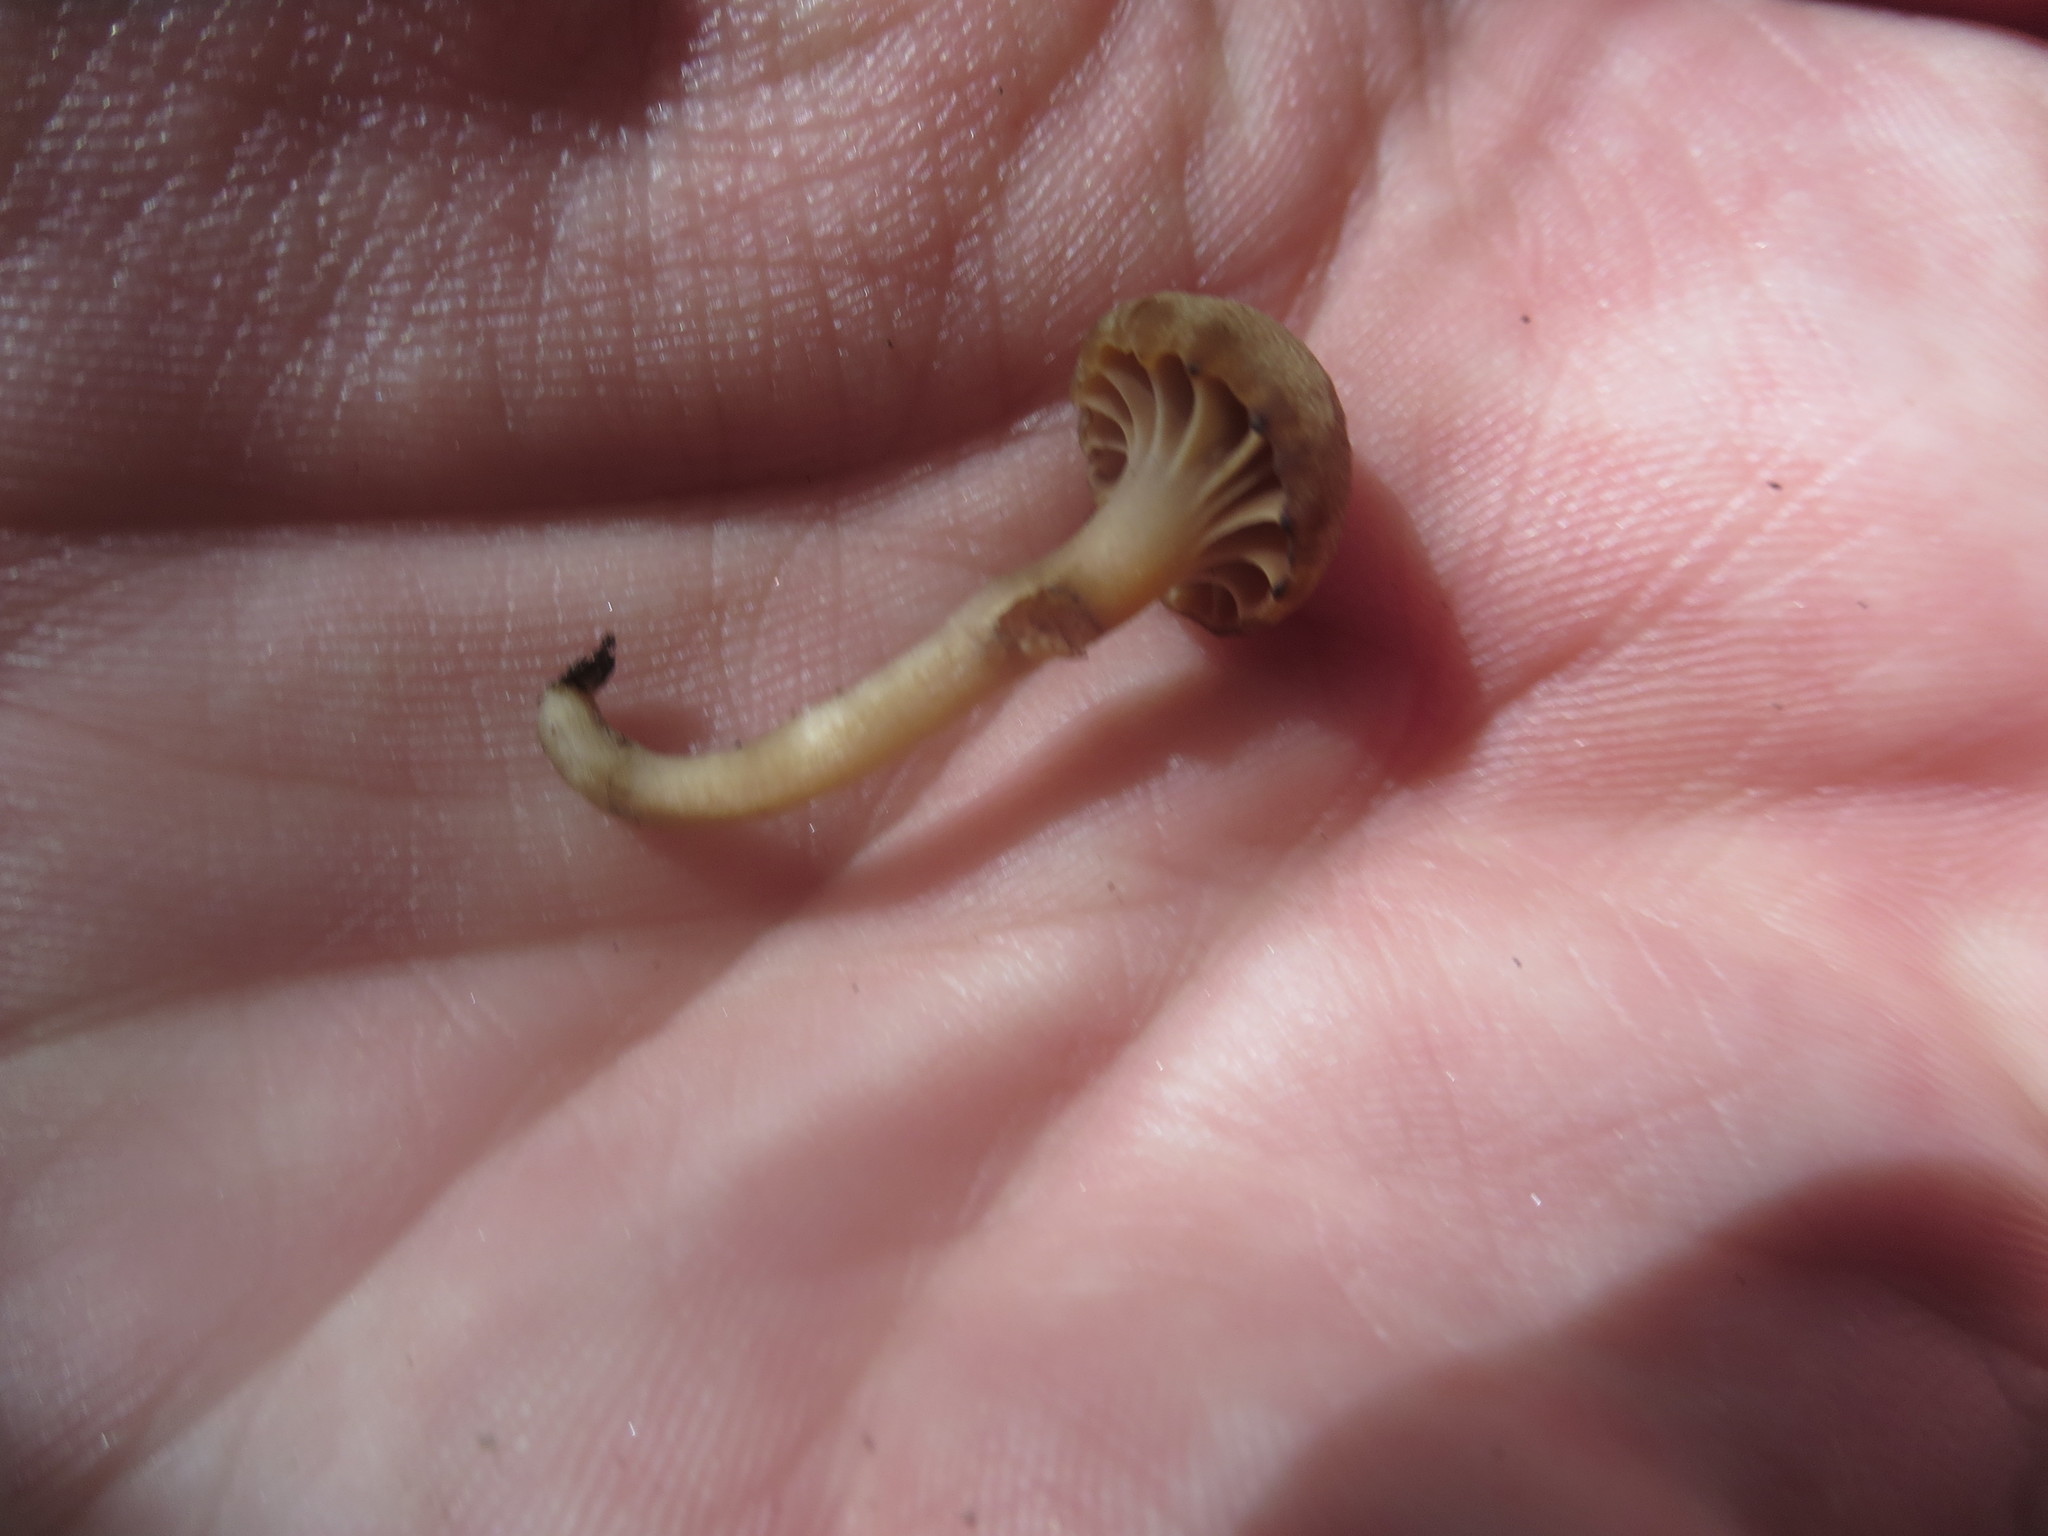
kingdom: Fungi
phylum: Basidiomycota
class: Agaricomycetes
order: Agaricales
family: Clavariaceae
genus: Hodophilus
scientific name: Hodophilus hymenocephalus
